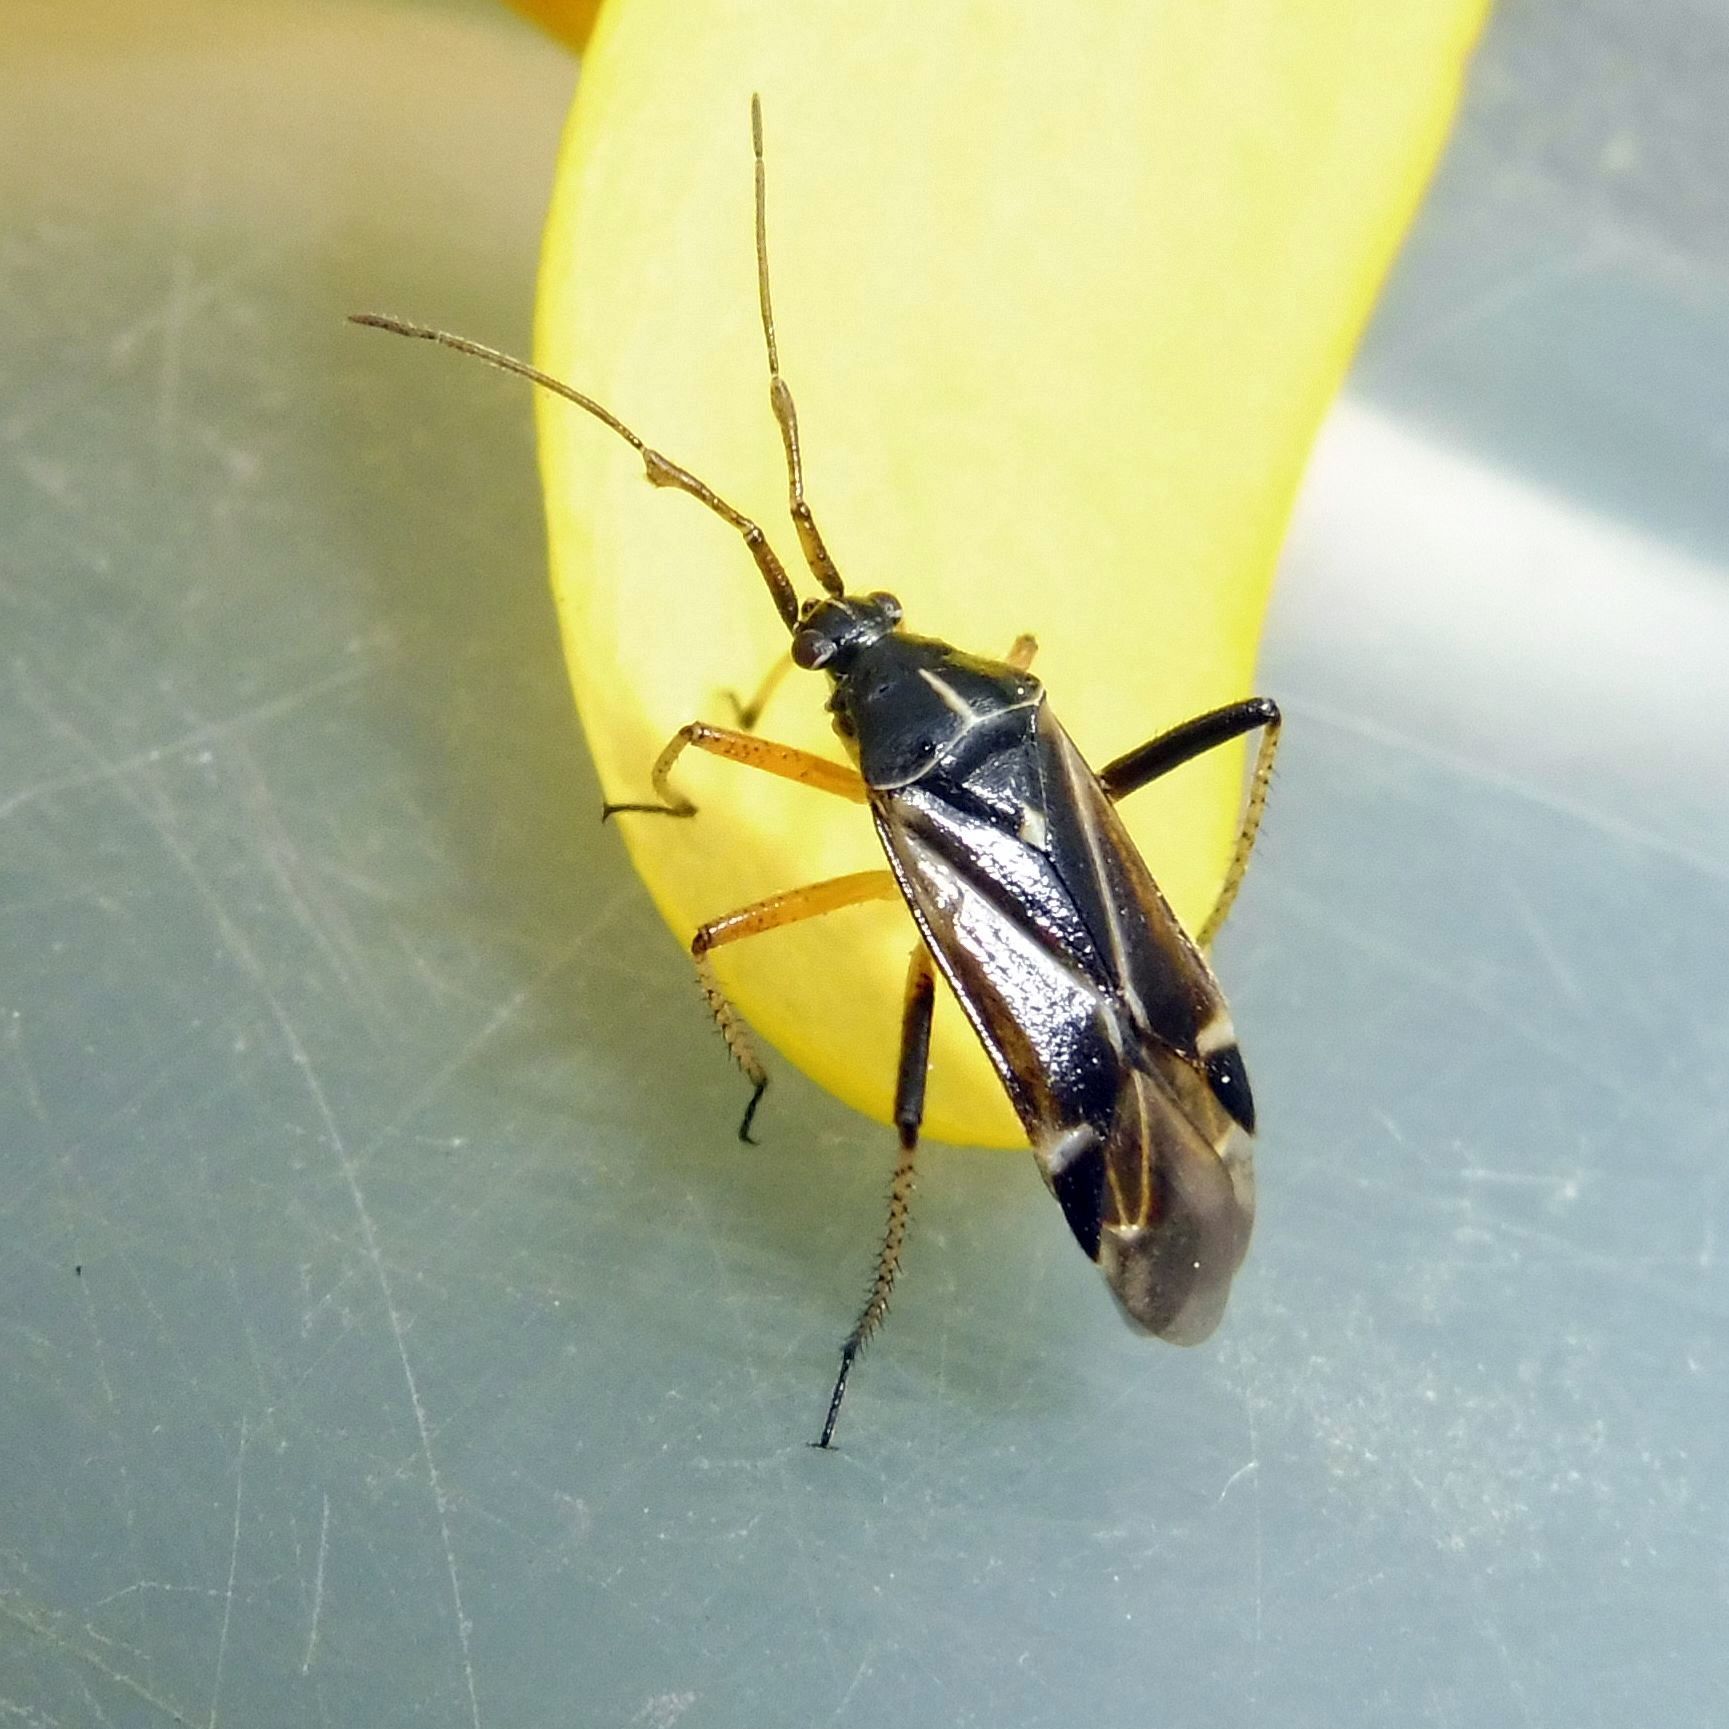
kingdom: Animalia
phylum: Arthropoda
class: Insecta
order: Hemiptera
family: Miridae
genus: Harpocera
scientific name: Harpocera thoracica
